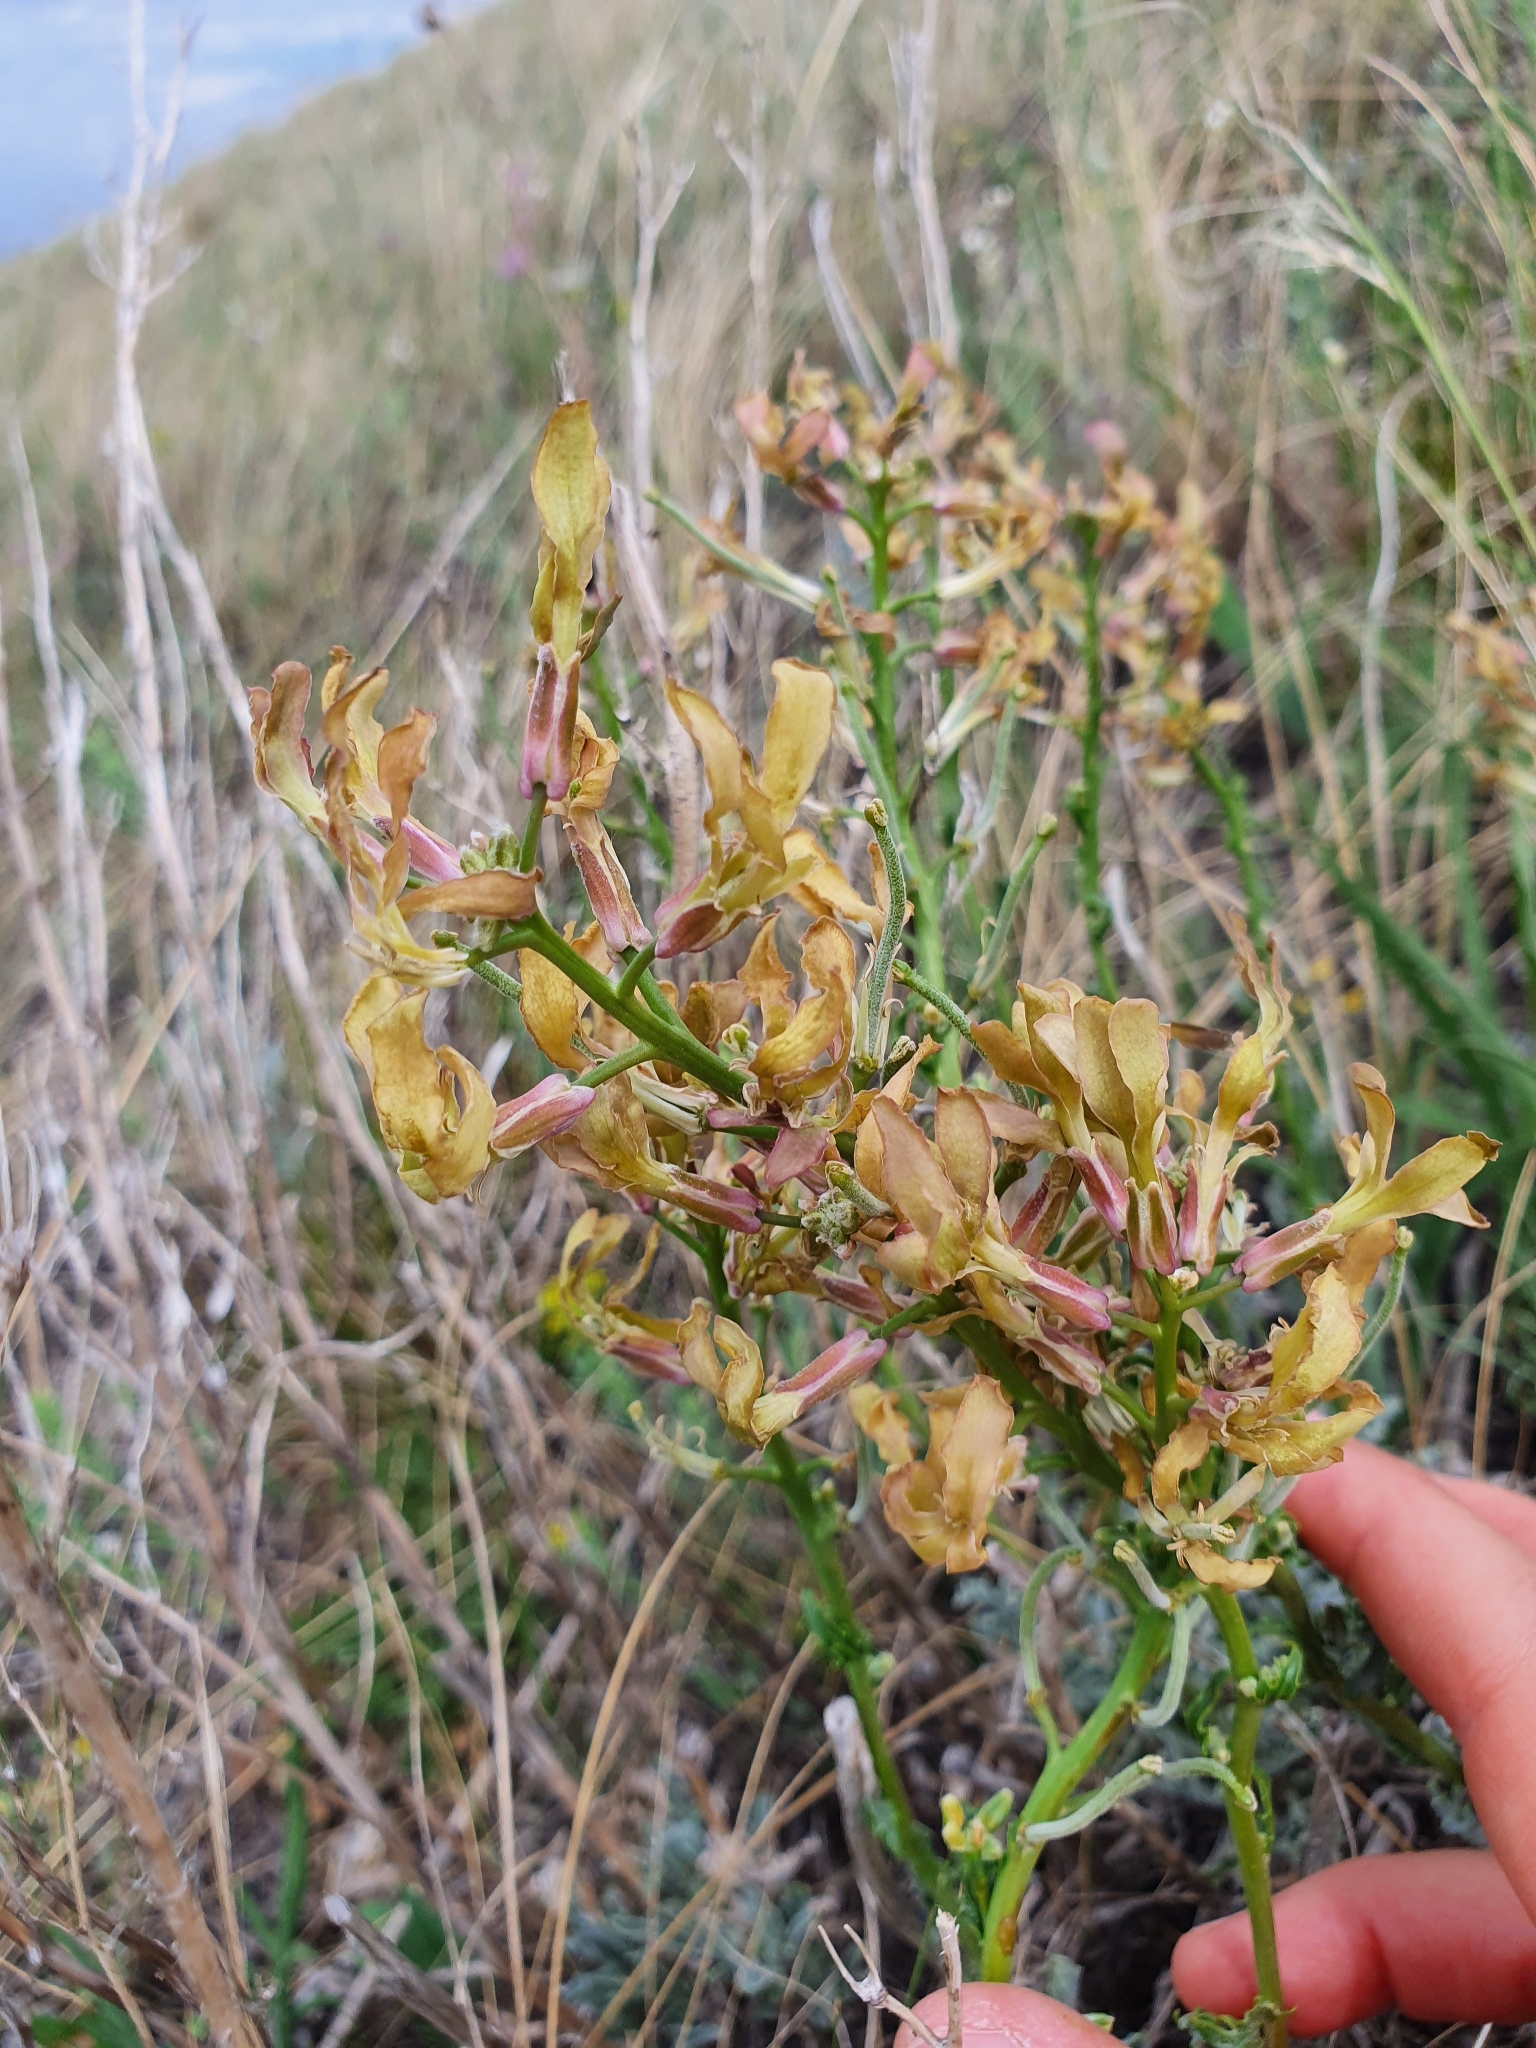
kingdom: Plantae
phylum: Tracheophyta
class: Magnoliopsida
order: Brassicales
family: Brassicaceae
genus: Matthiola
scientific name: Matthiola fragrans
